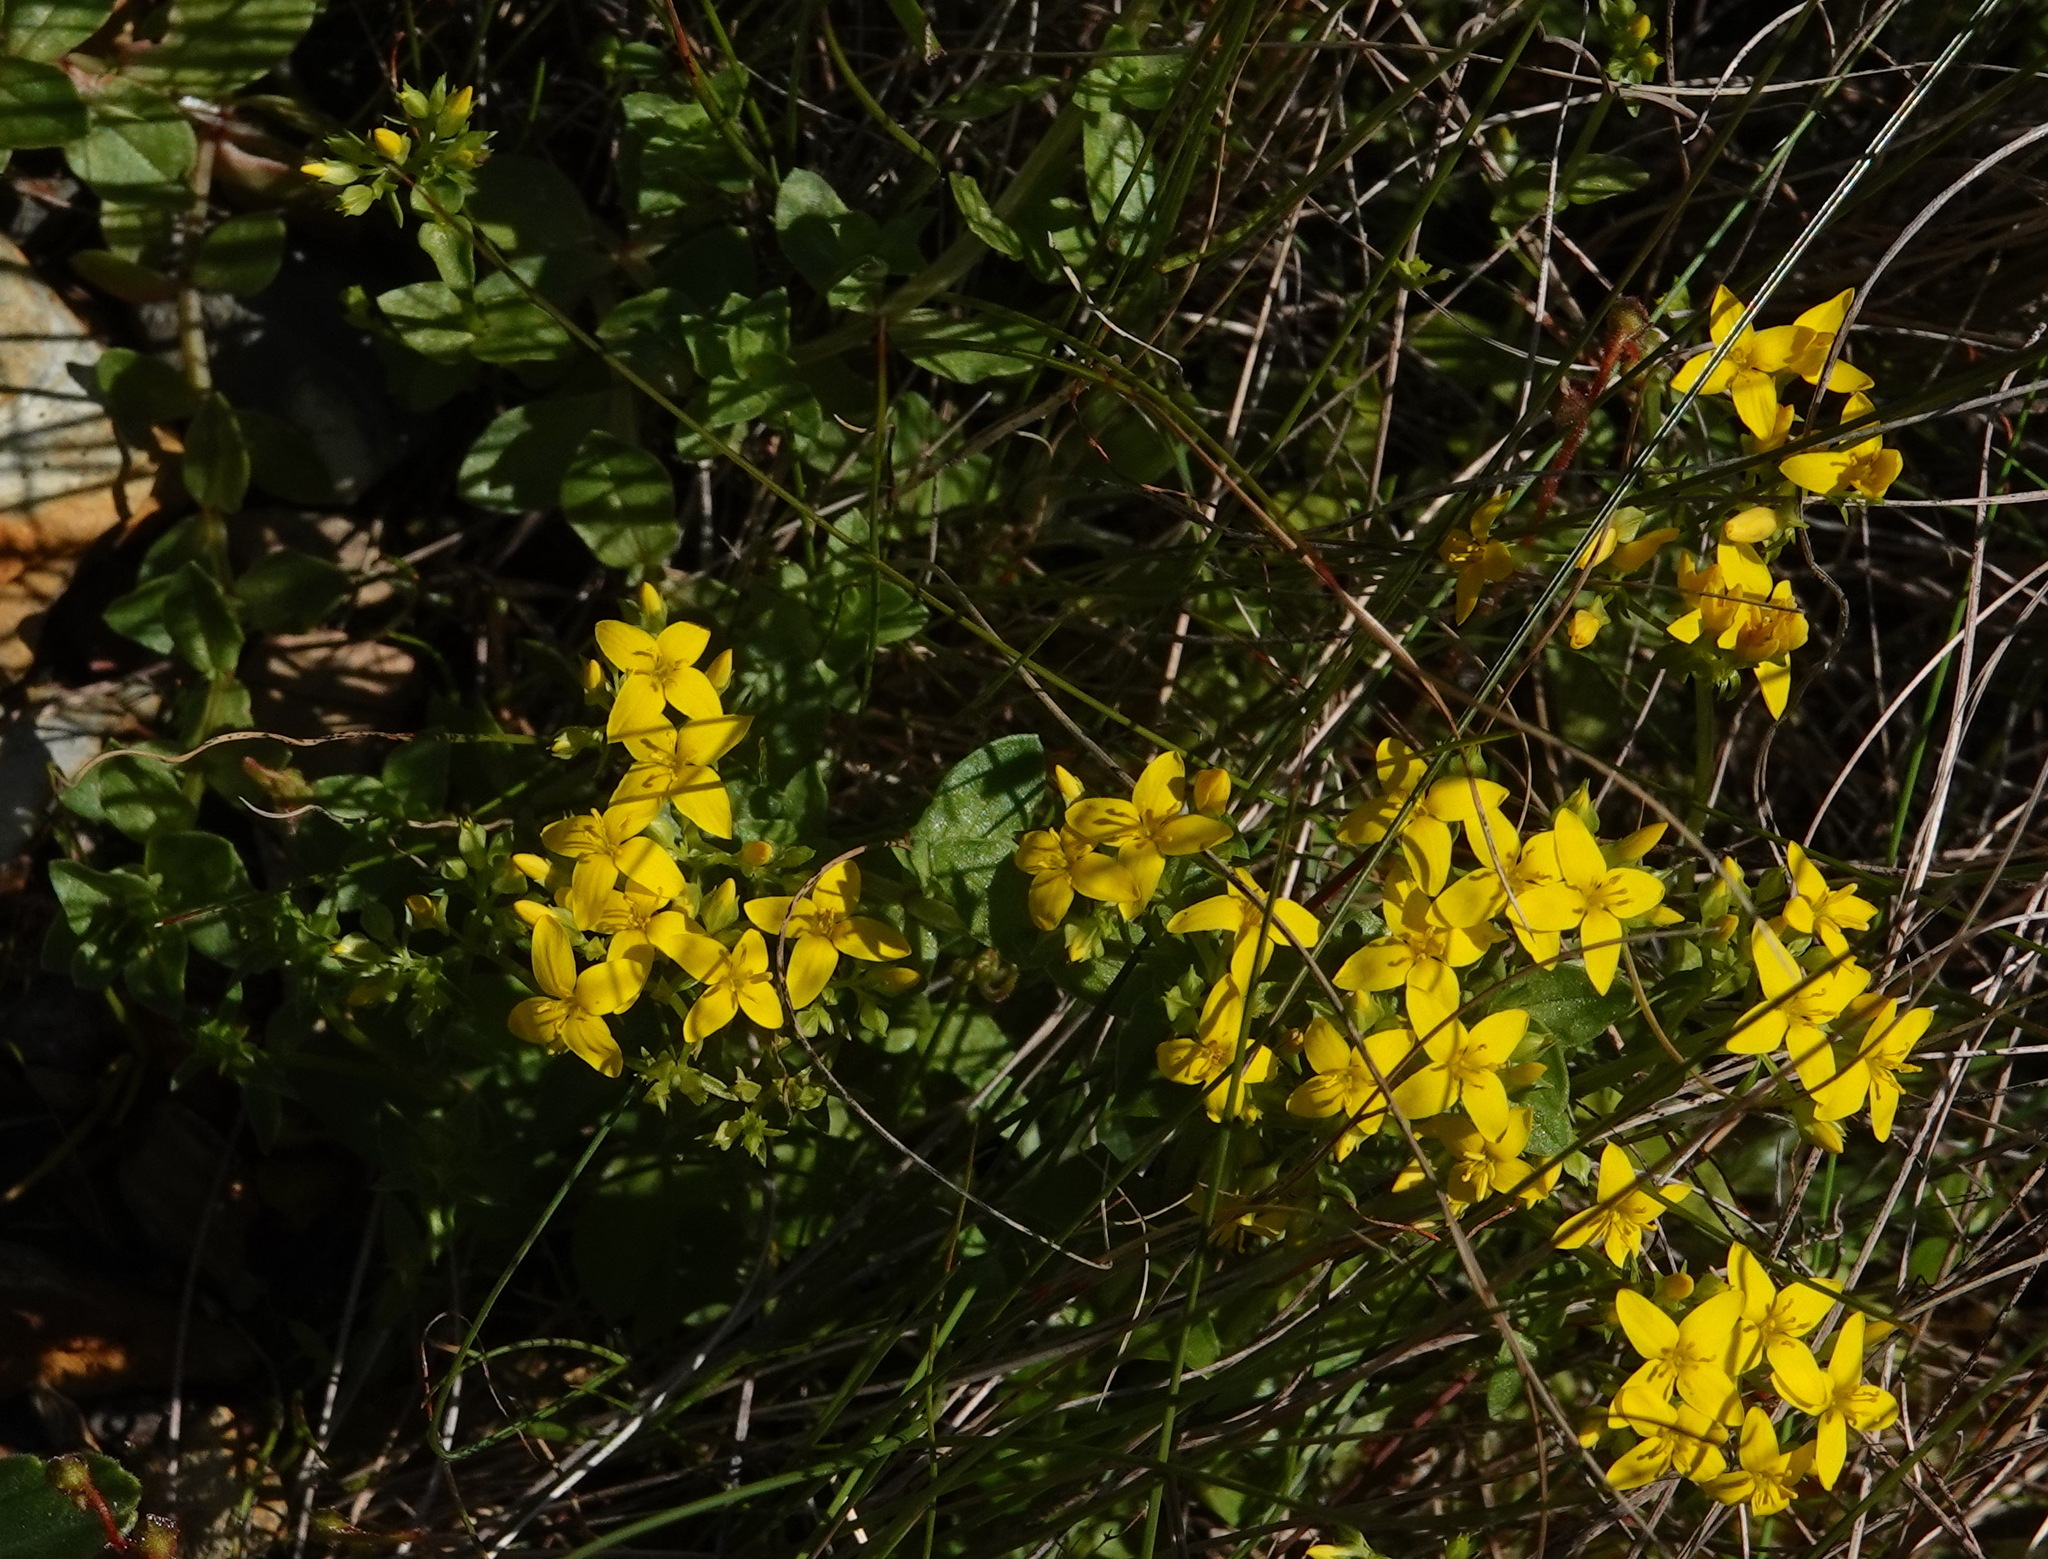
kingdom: Plantae
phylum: Tracheophyta
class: Magnoliopsida
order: Gentianales
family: Gentianaceae
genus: Sebaea
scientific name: Sebaea aurea
